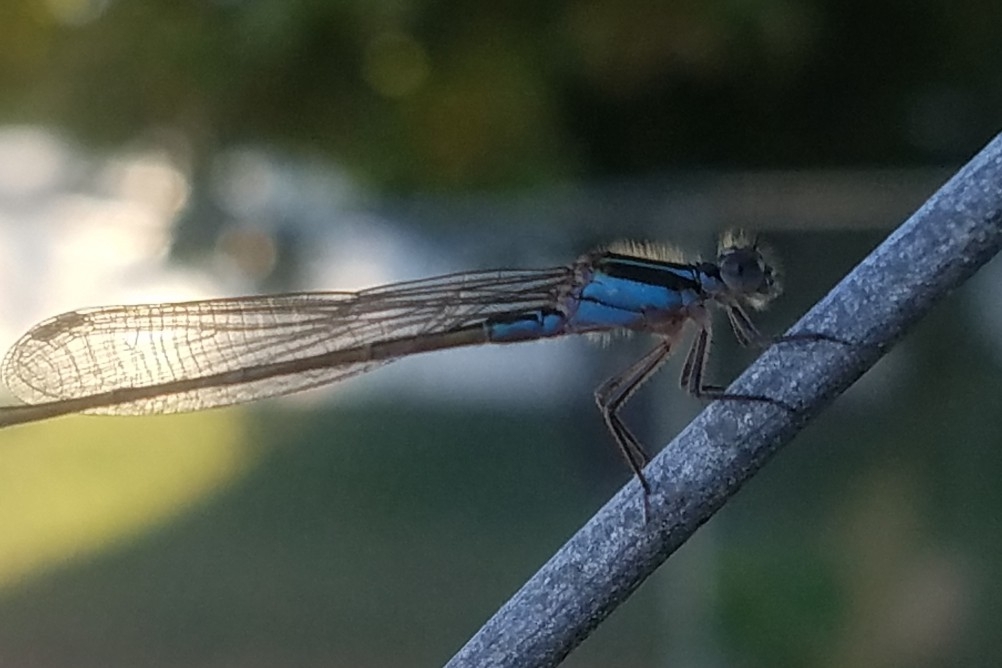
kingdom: Animalia
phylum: Arthropoda
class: Insecta
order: Odonata
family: Coenagrionidae
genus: Ischnura
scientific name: Ischnura ramburii
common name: Rambur's forktail
